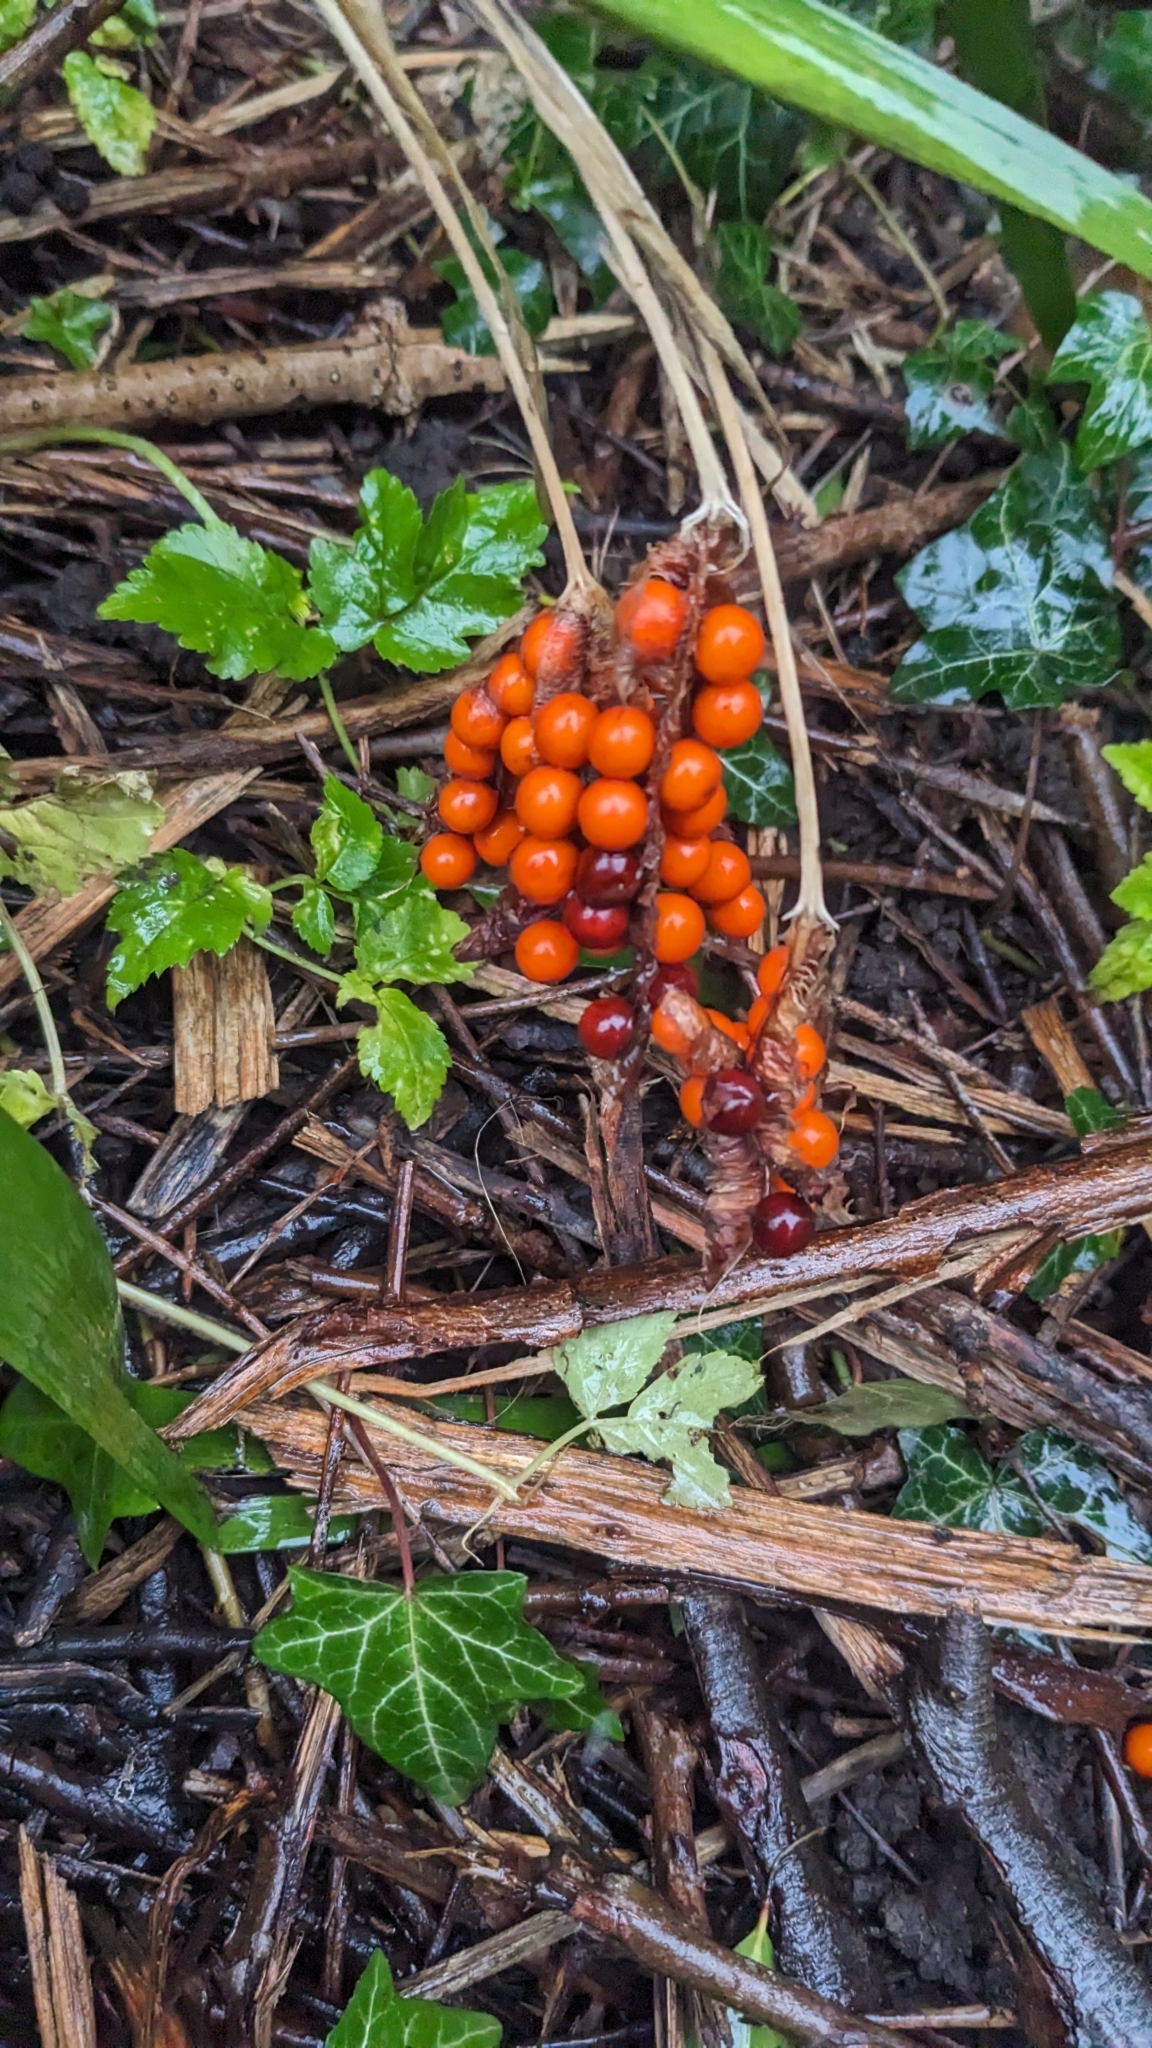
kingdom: Plantae
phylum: Tracheophyta
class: Liliopsida
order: Asparagales
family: Iridaceae
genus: Iris
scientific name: Iris foetidissima
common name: Stinking iris
